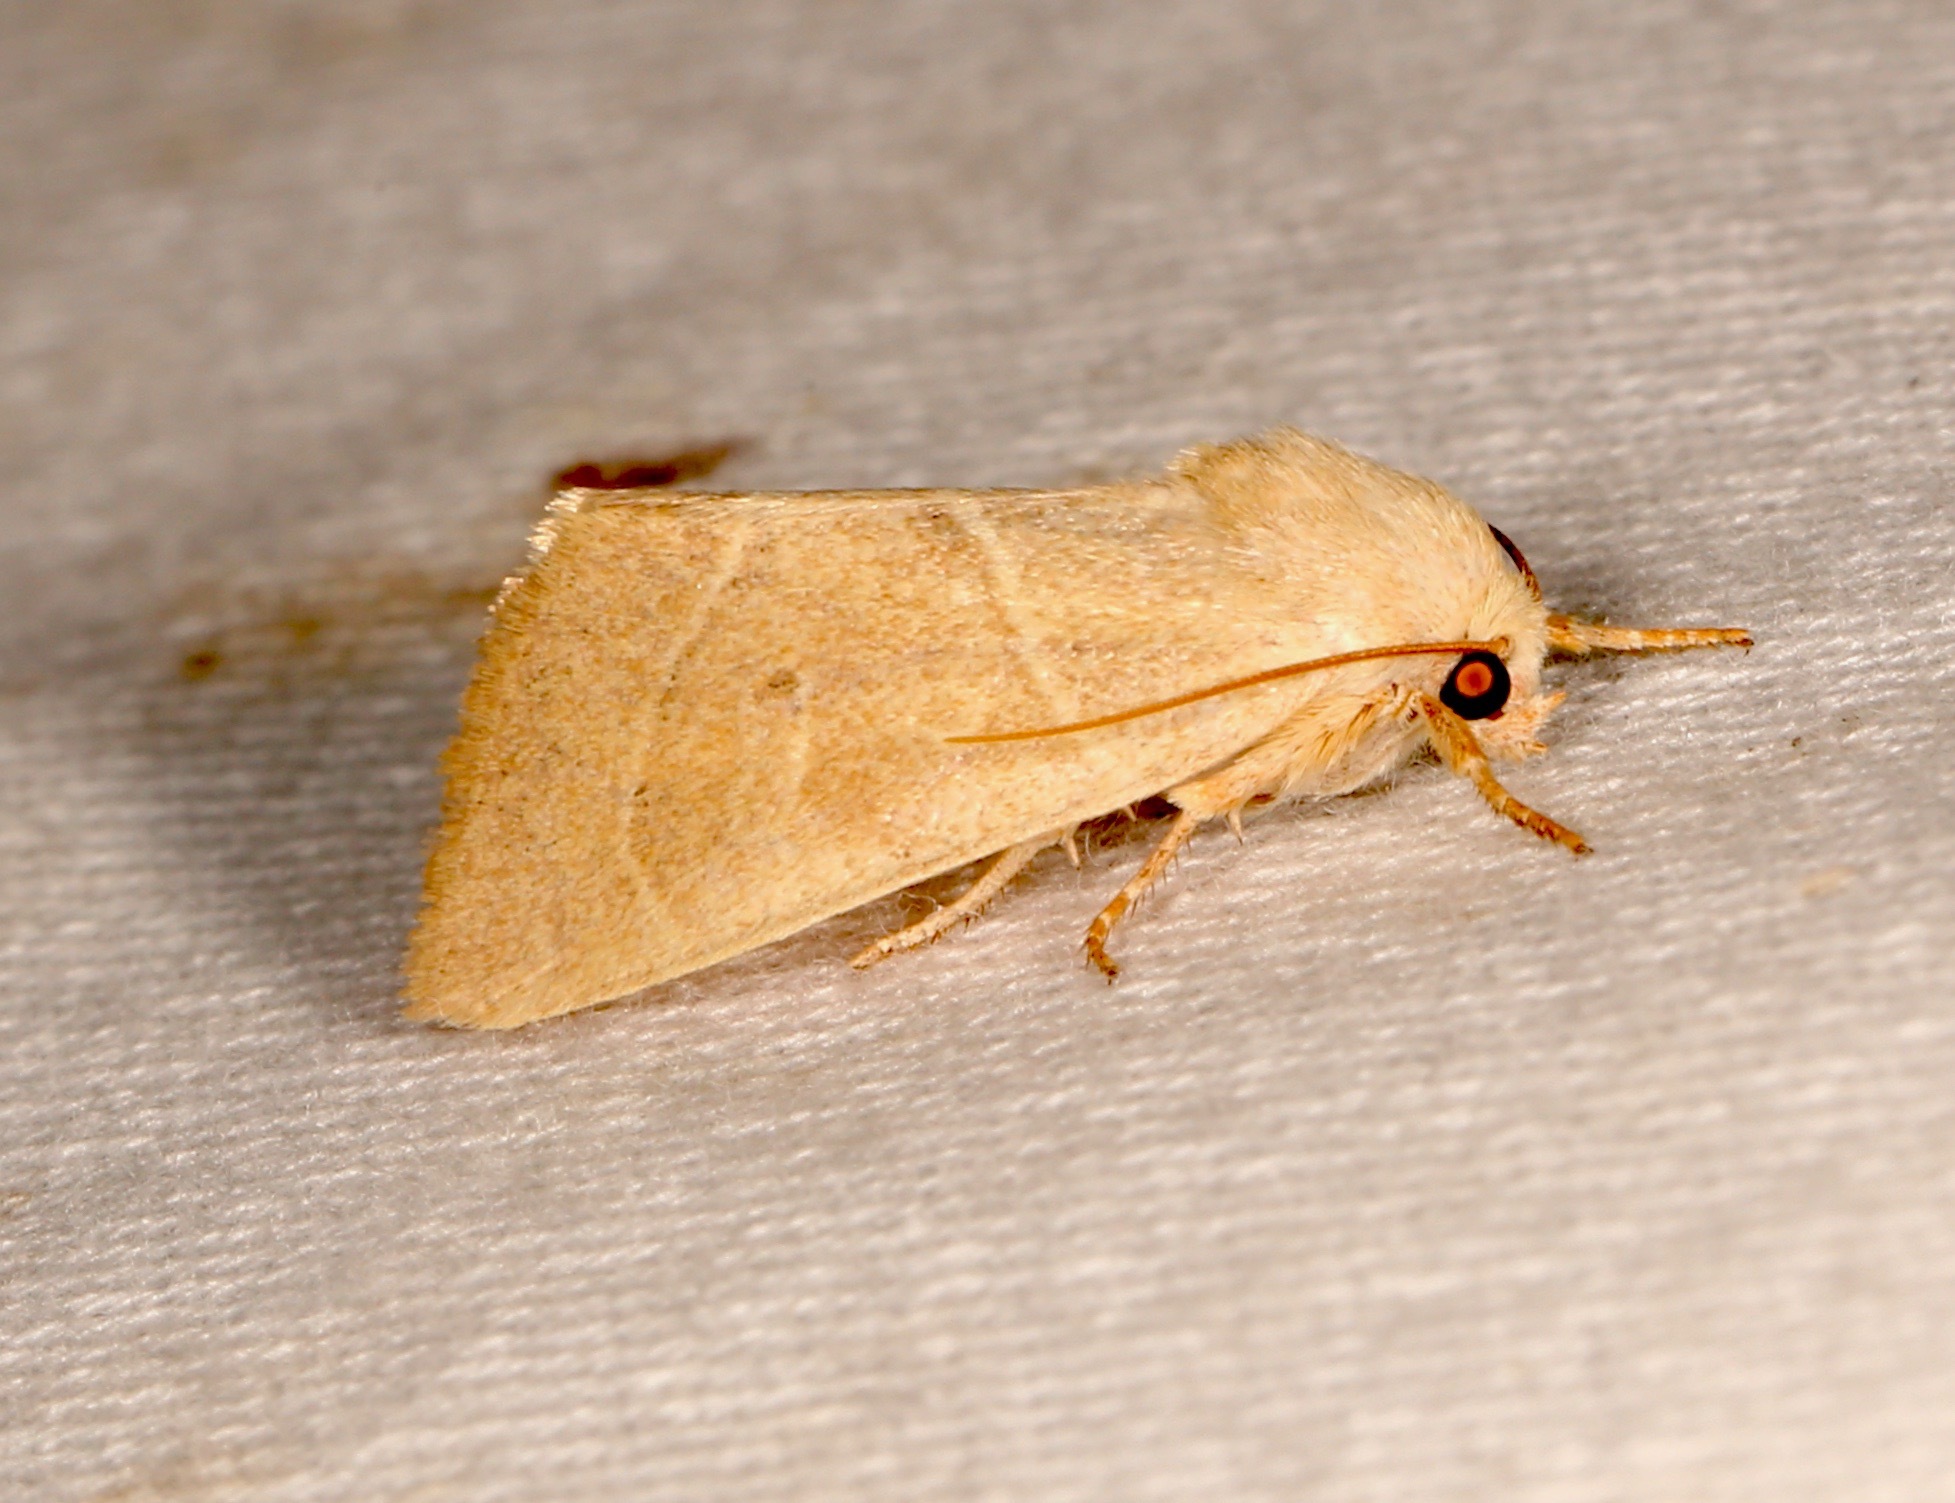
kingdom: Animalia
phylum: Arthropoda
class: Insecta
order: Lepidoptera
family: Noctuidae
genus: Cosmia
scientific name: Cosmia calami
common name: American dun-bar moth
